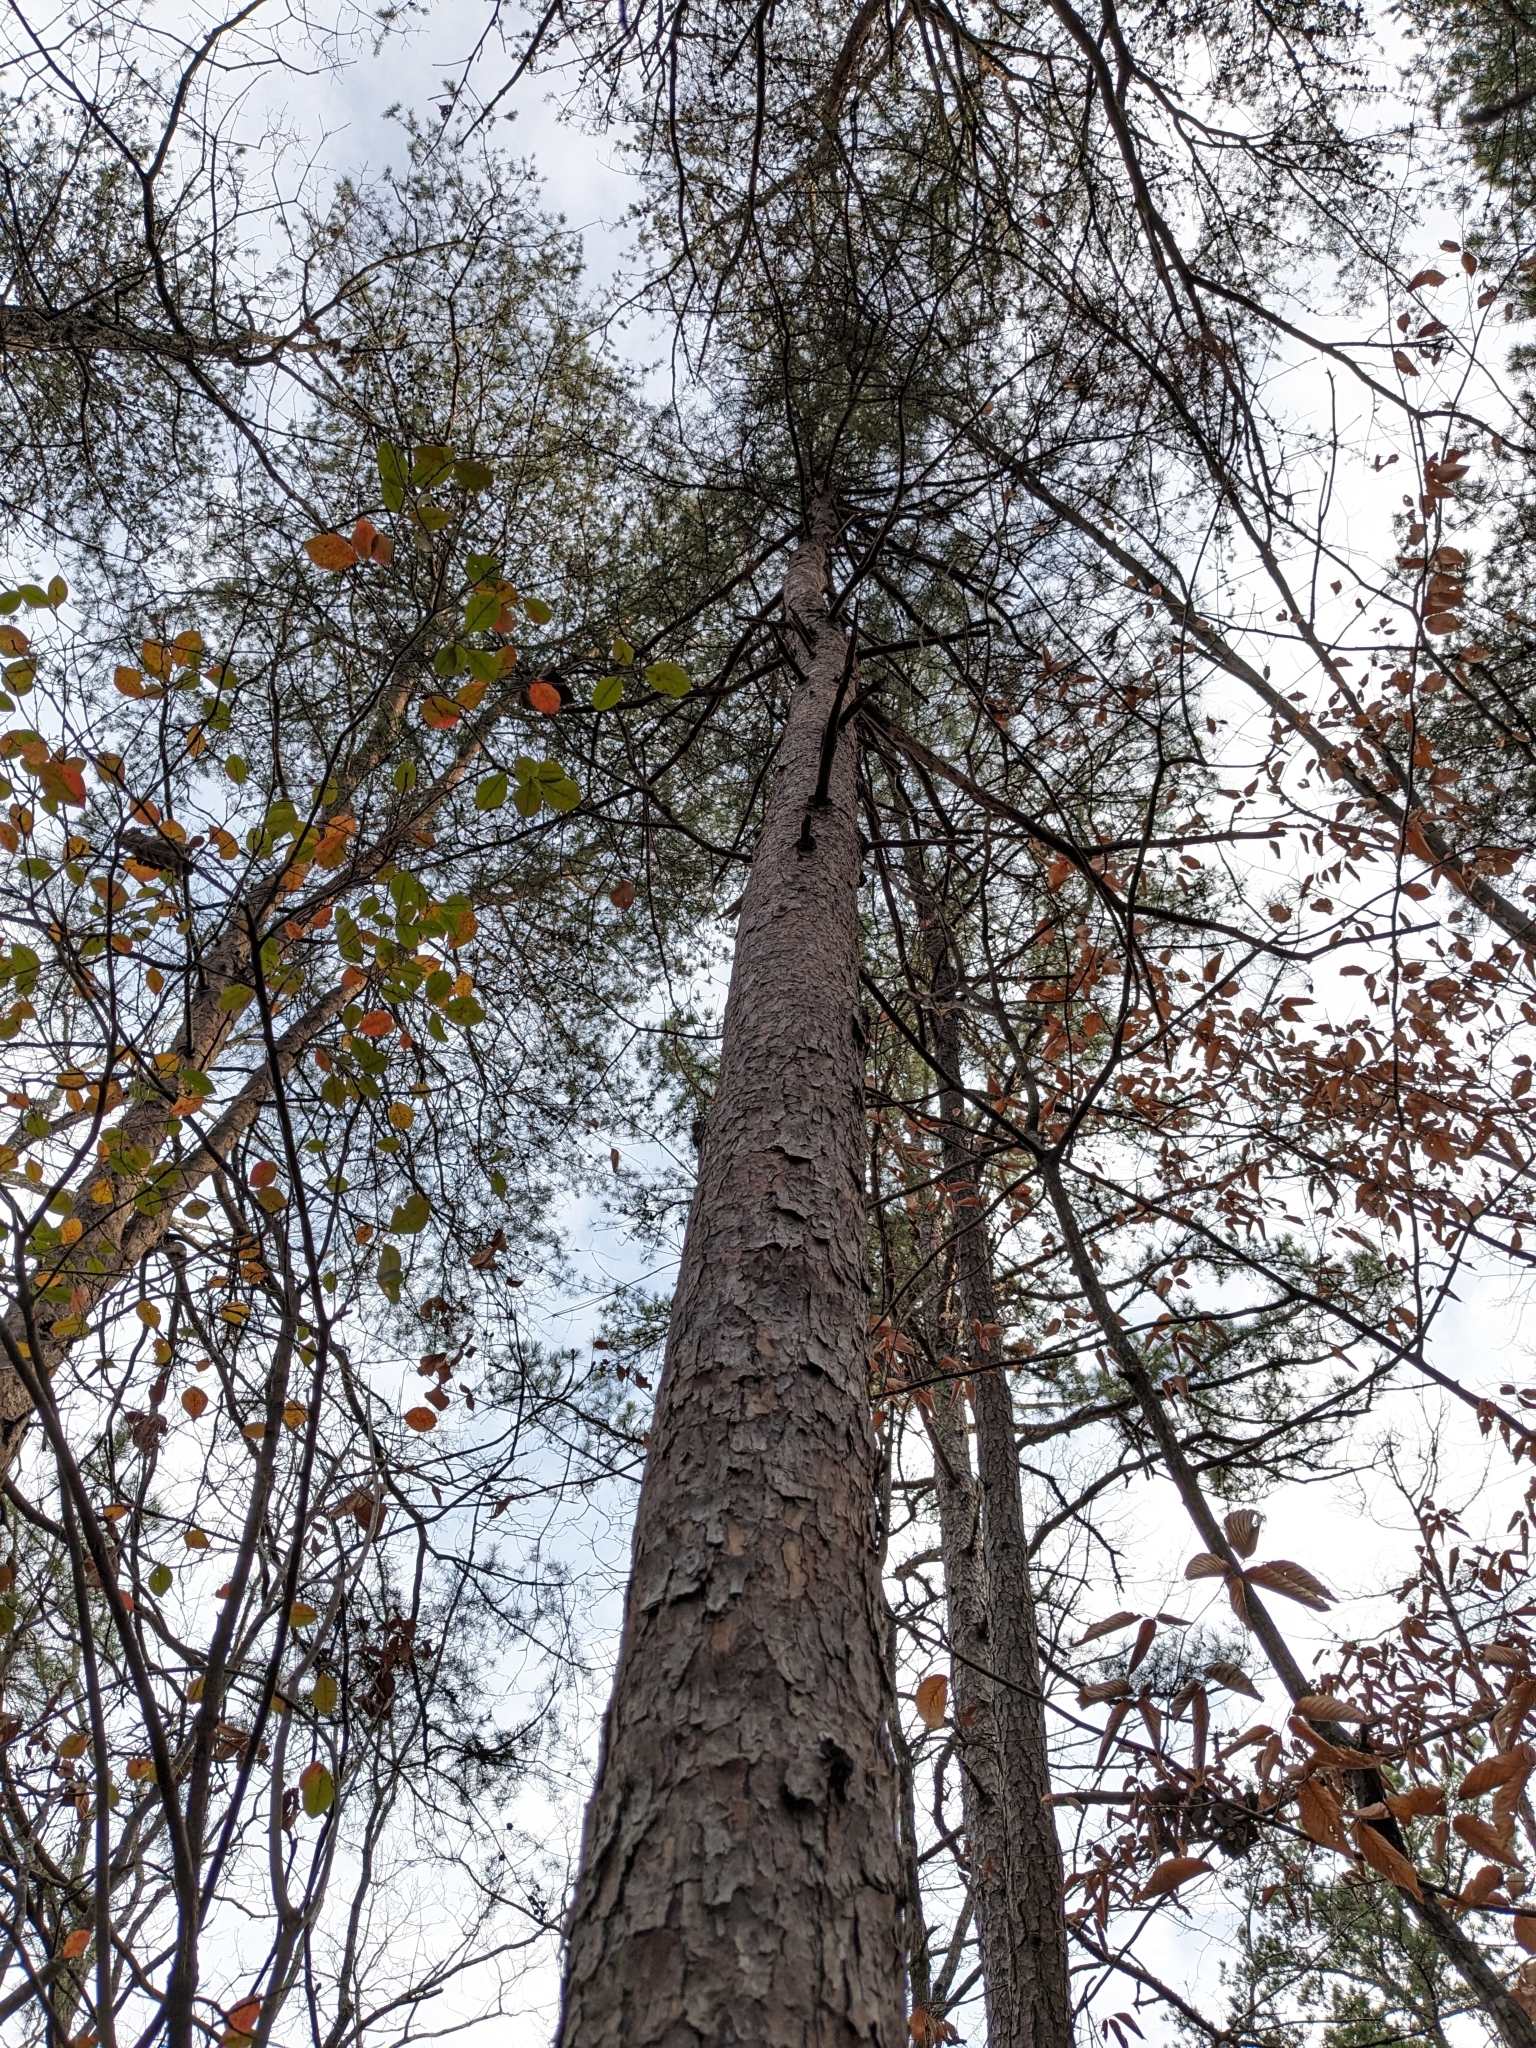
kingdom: Plantae
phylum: Tracheophyta
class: Pinopsida
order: Pinales
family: Pinaceae
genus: Pinus
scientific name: Pinus virginiana
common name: Scrub pine
